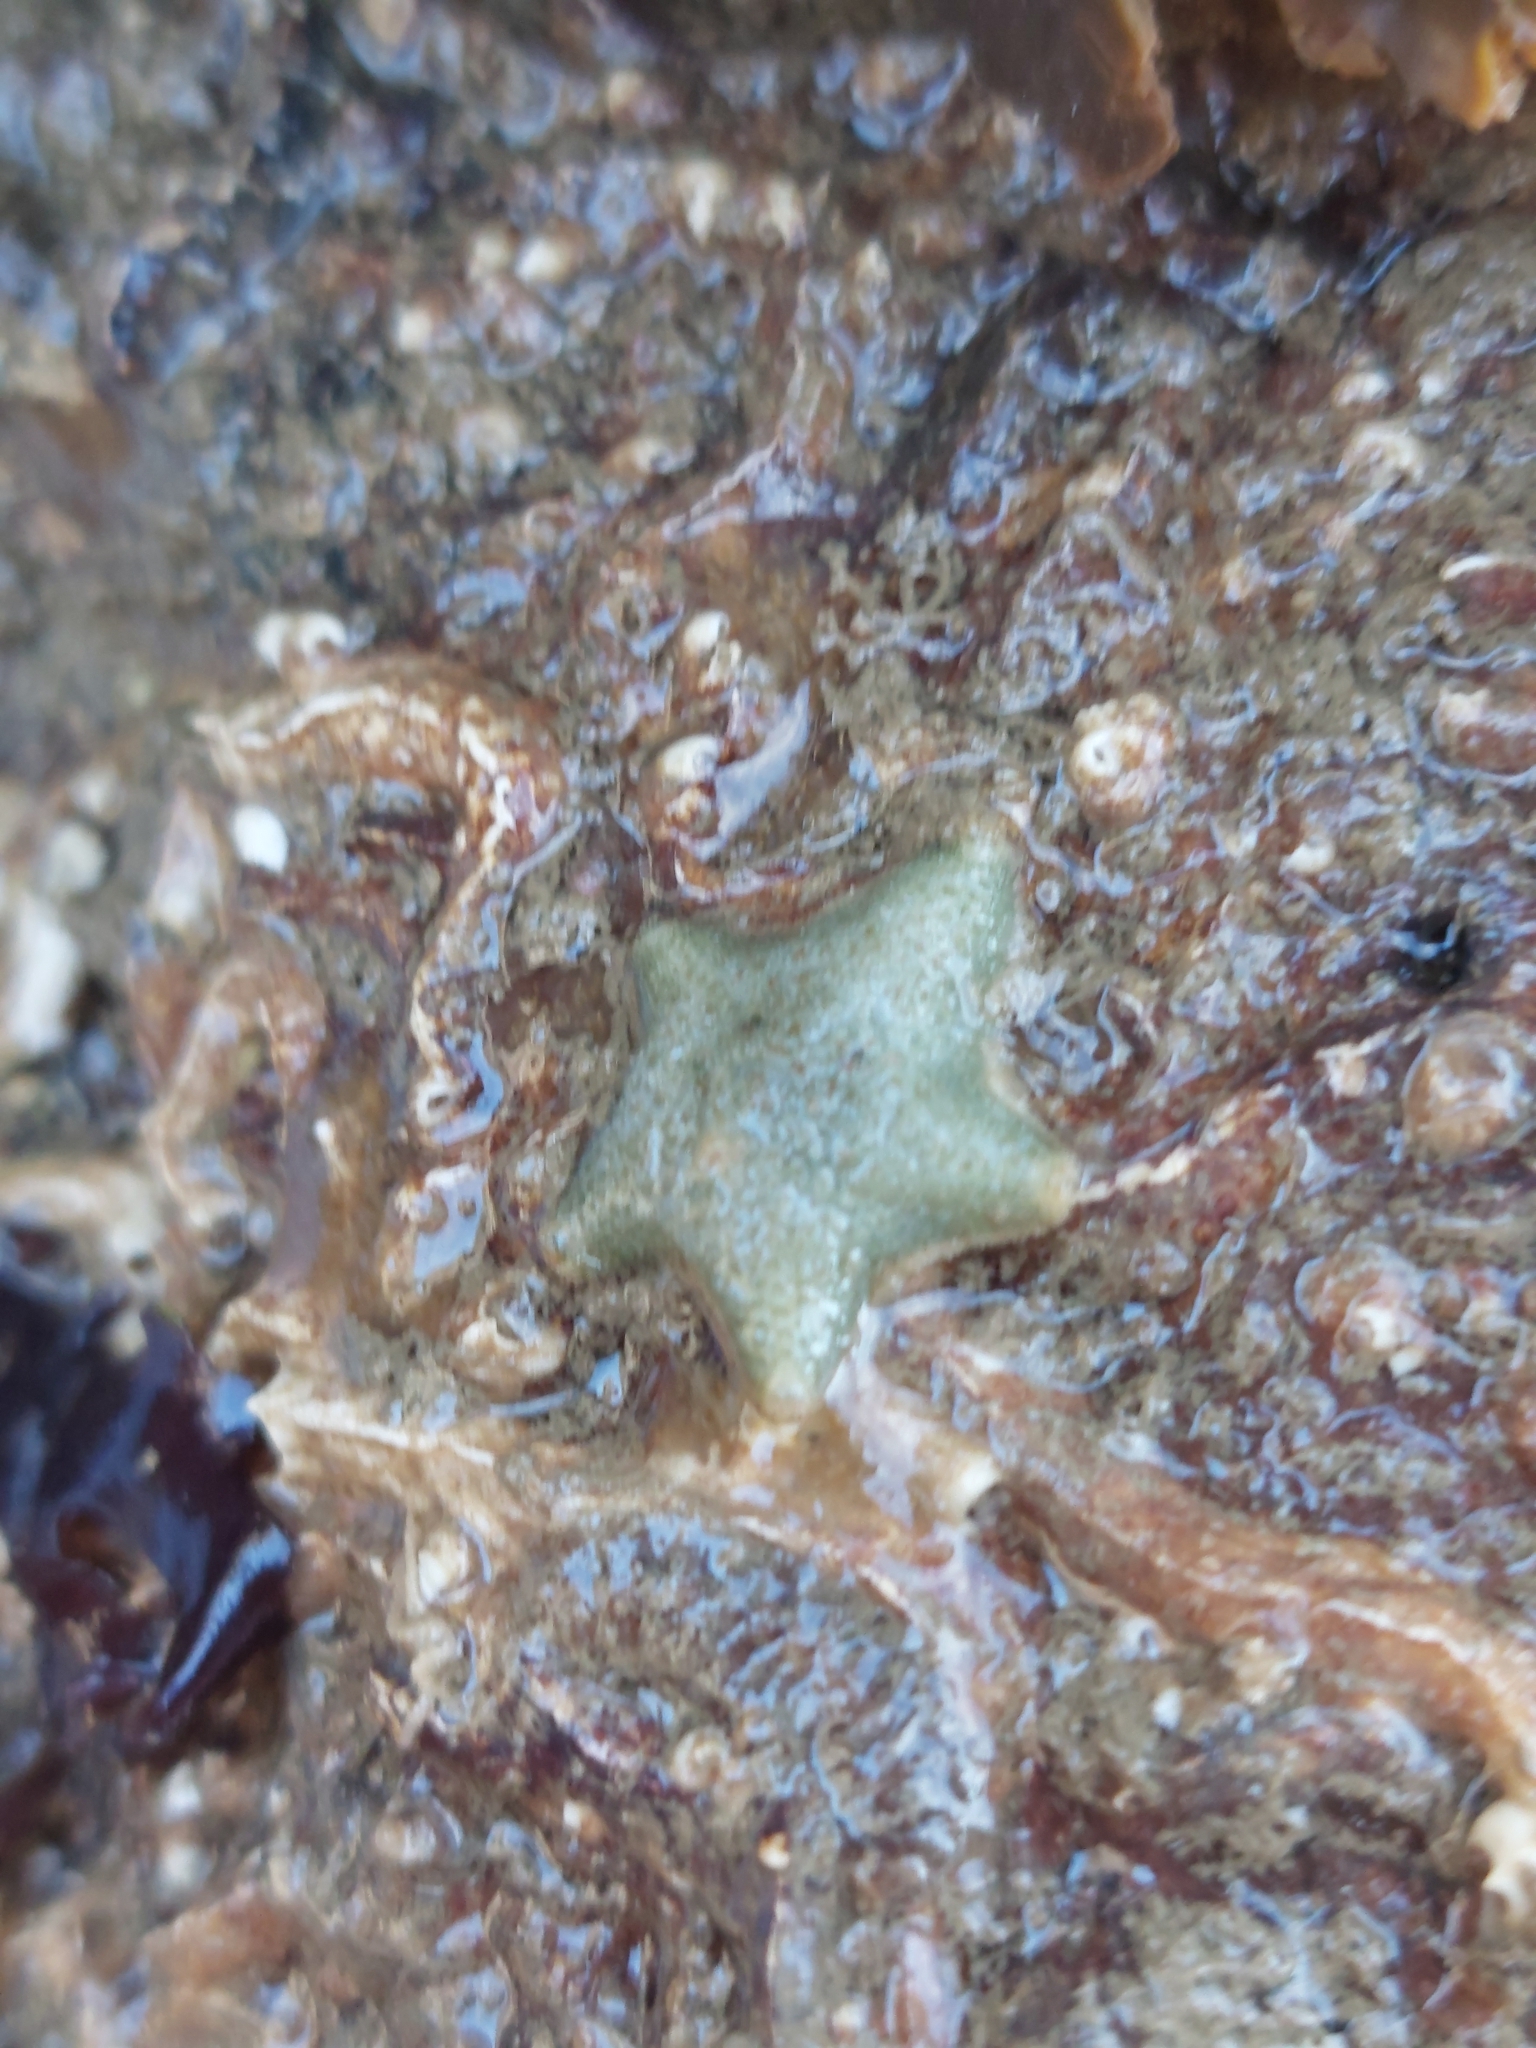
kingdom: Animalia
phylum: Echinodermata
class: Asteroidea
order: Valvatida
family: Asterinidae
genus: Asterina
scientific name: Asterina gibbosa
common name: Cushion star
